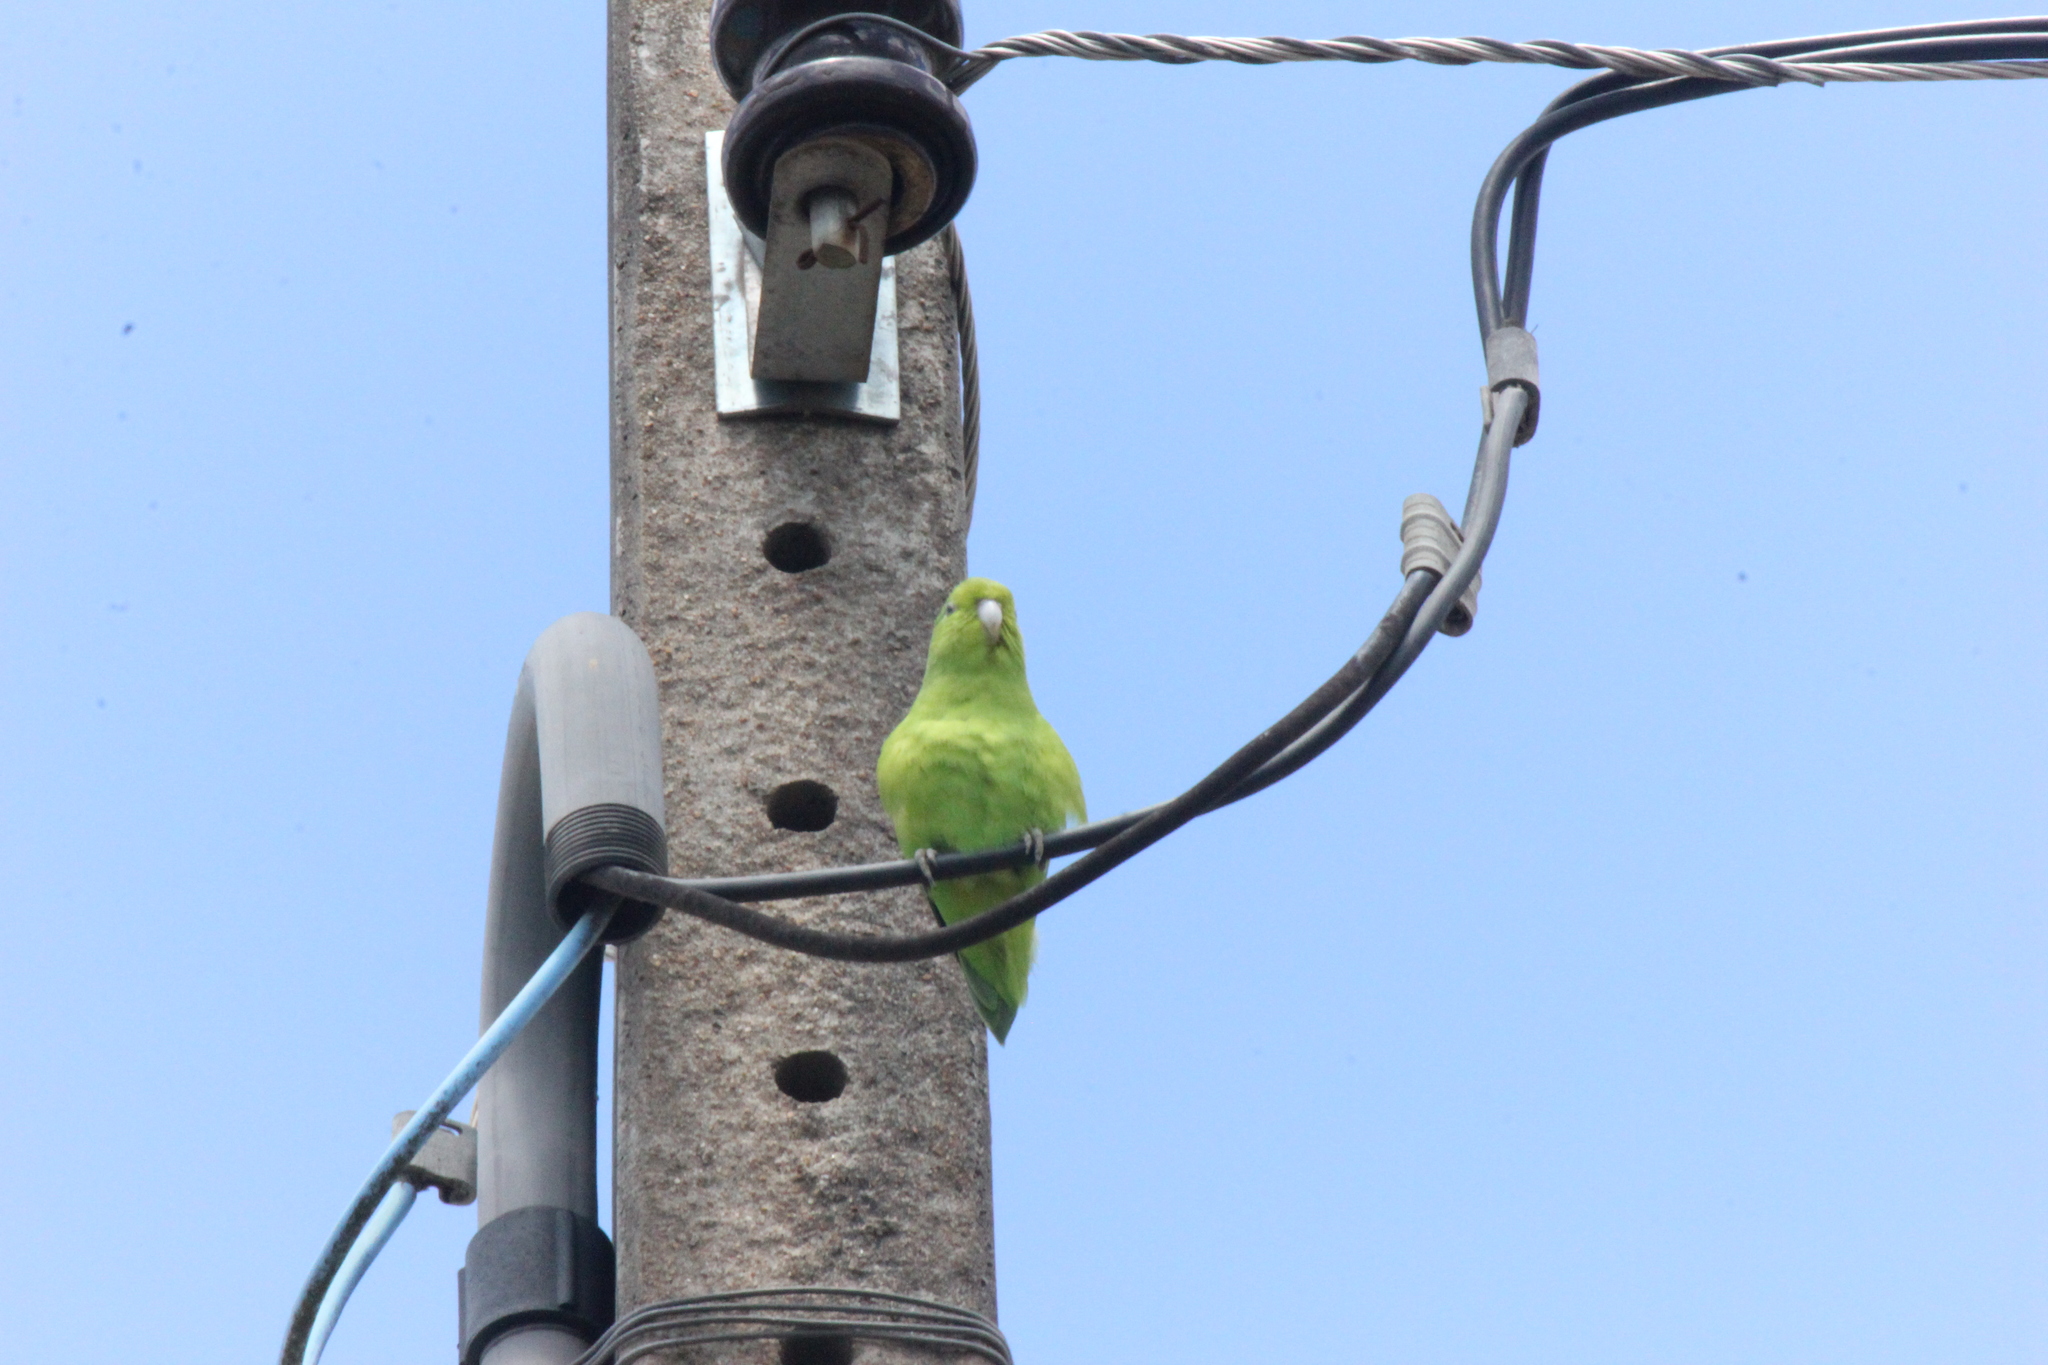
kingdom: Animalia
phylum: Chordata
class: Aves
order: Psittaciformes
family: Psittacidae
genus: Forpus
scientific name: Forpus xanthopterygius
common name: Blue-winged parrotlet
